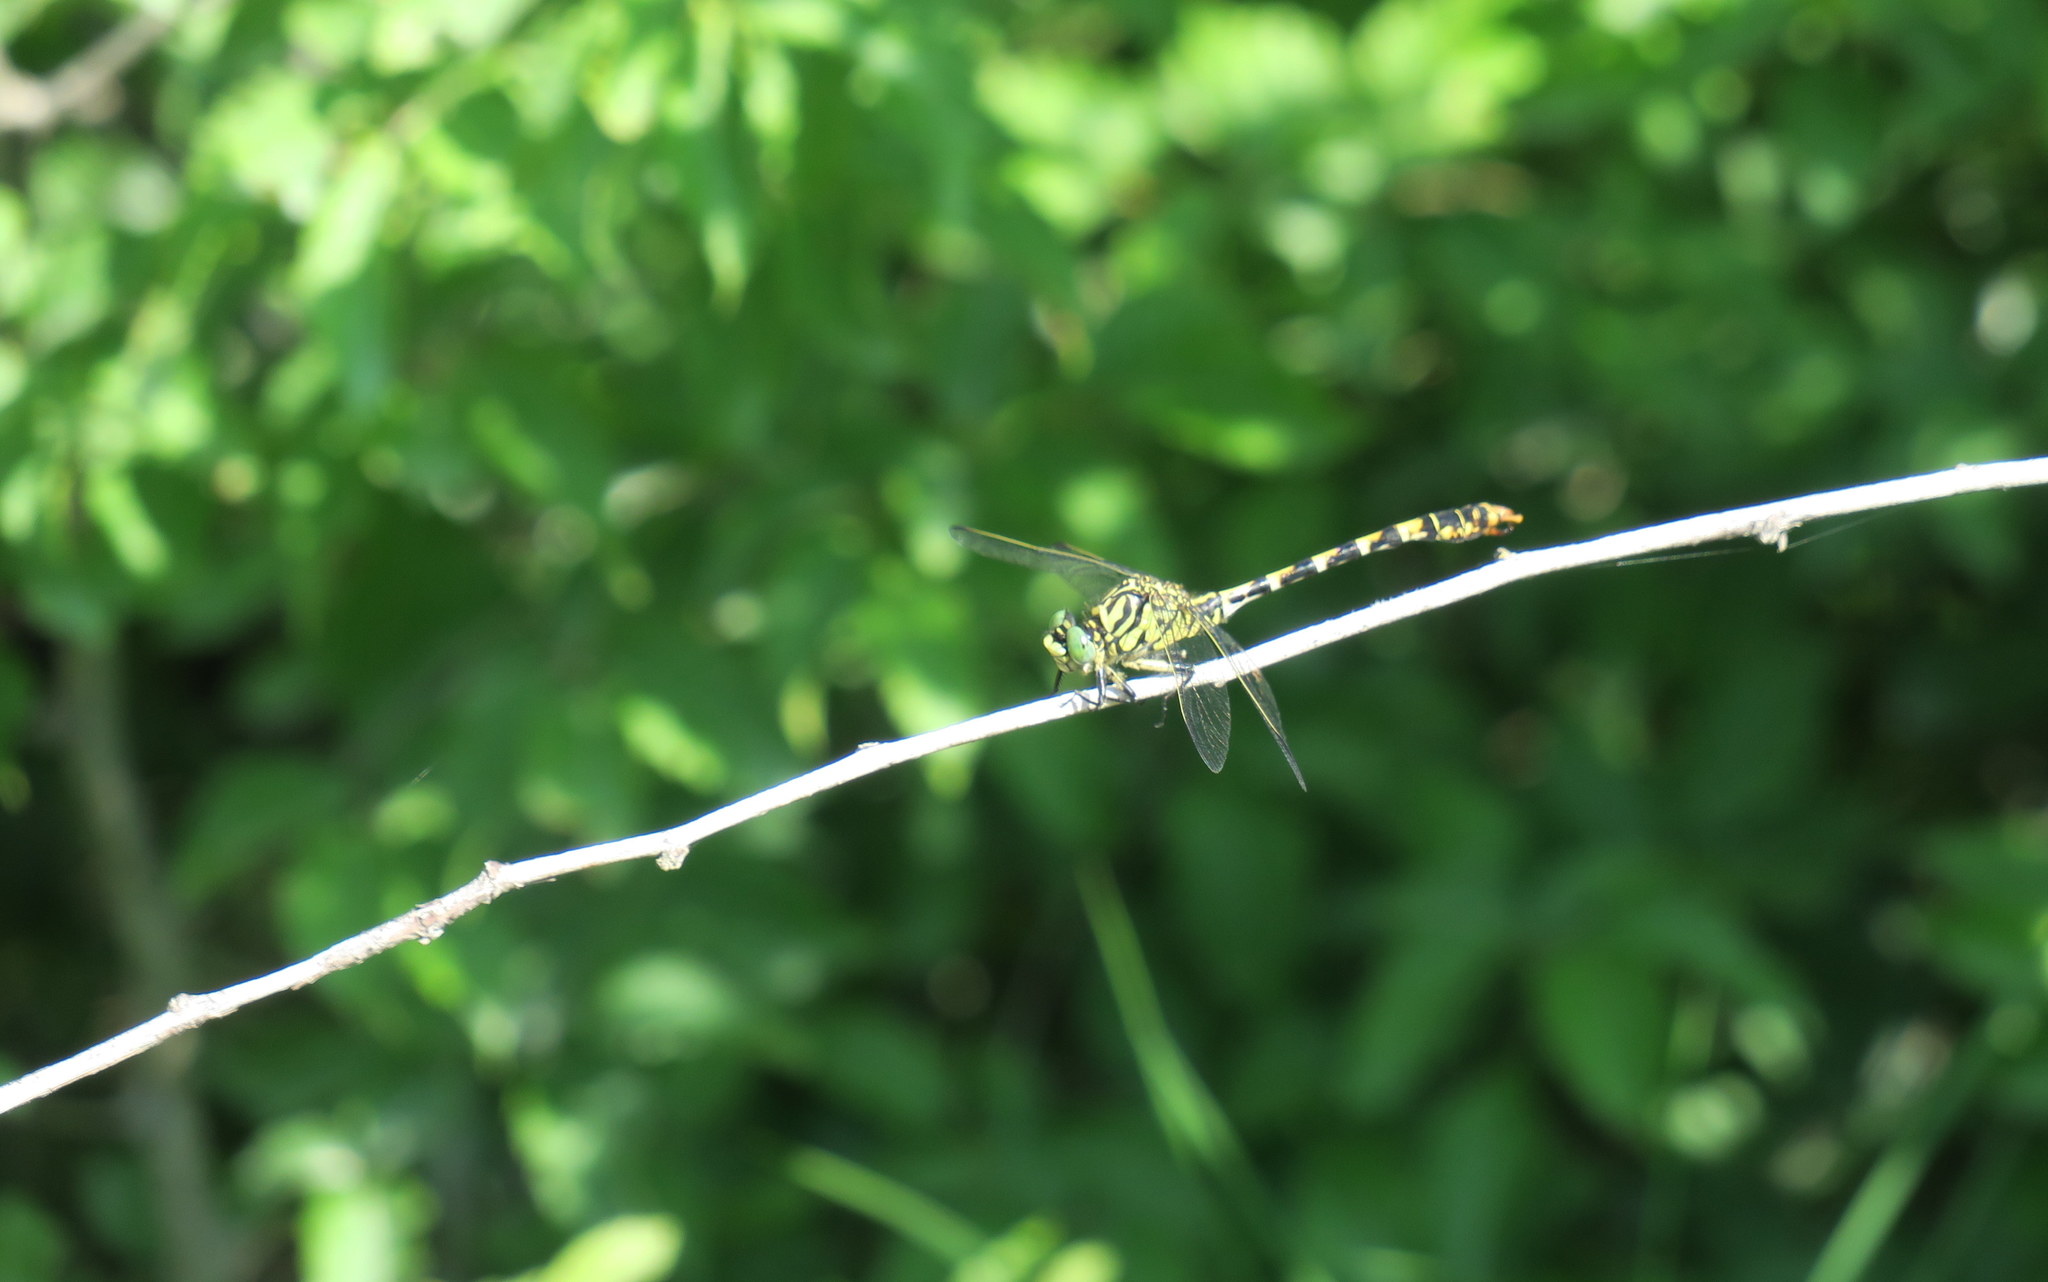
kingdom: Animalia
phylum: Arthropoda
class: Insecta
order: Odonata
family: Gomphidae
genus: Onychogomphus
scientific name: Onychogomphus forcipatus
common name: Small pincertail
